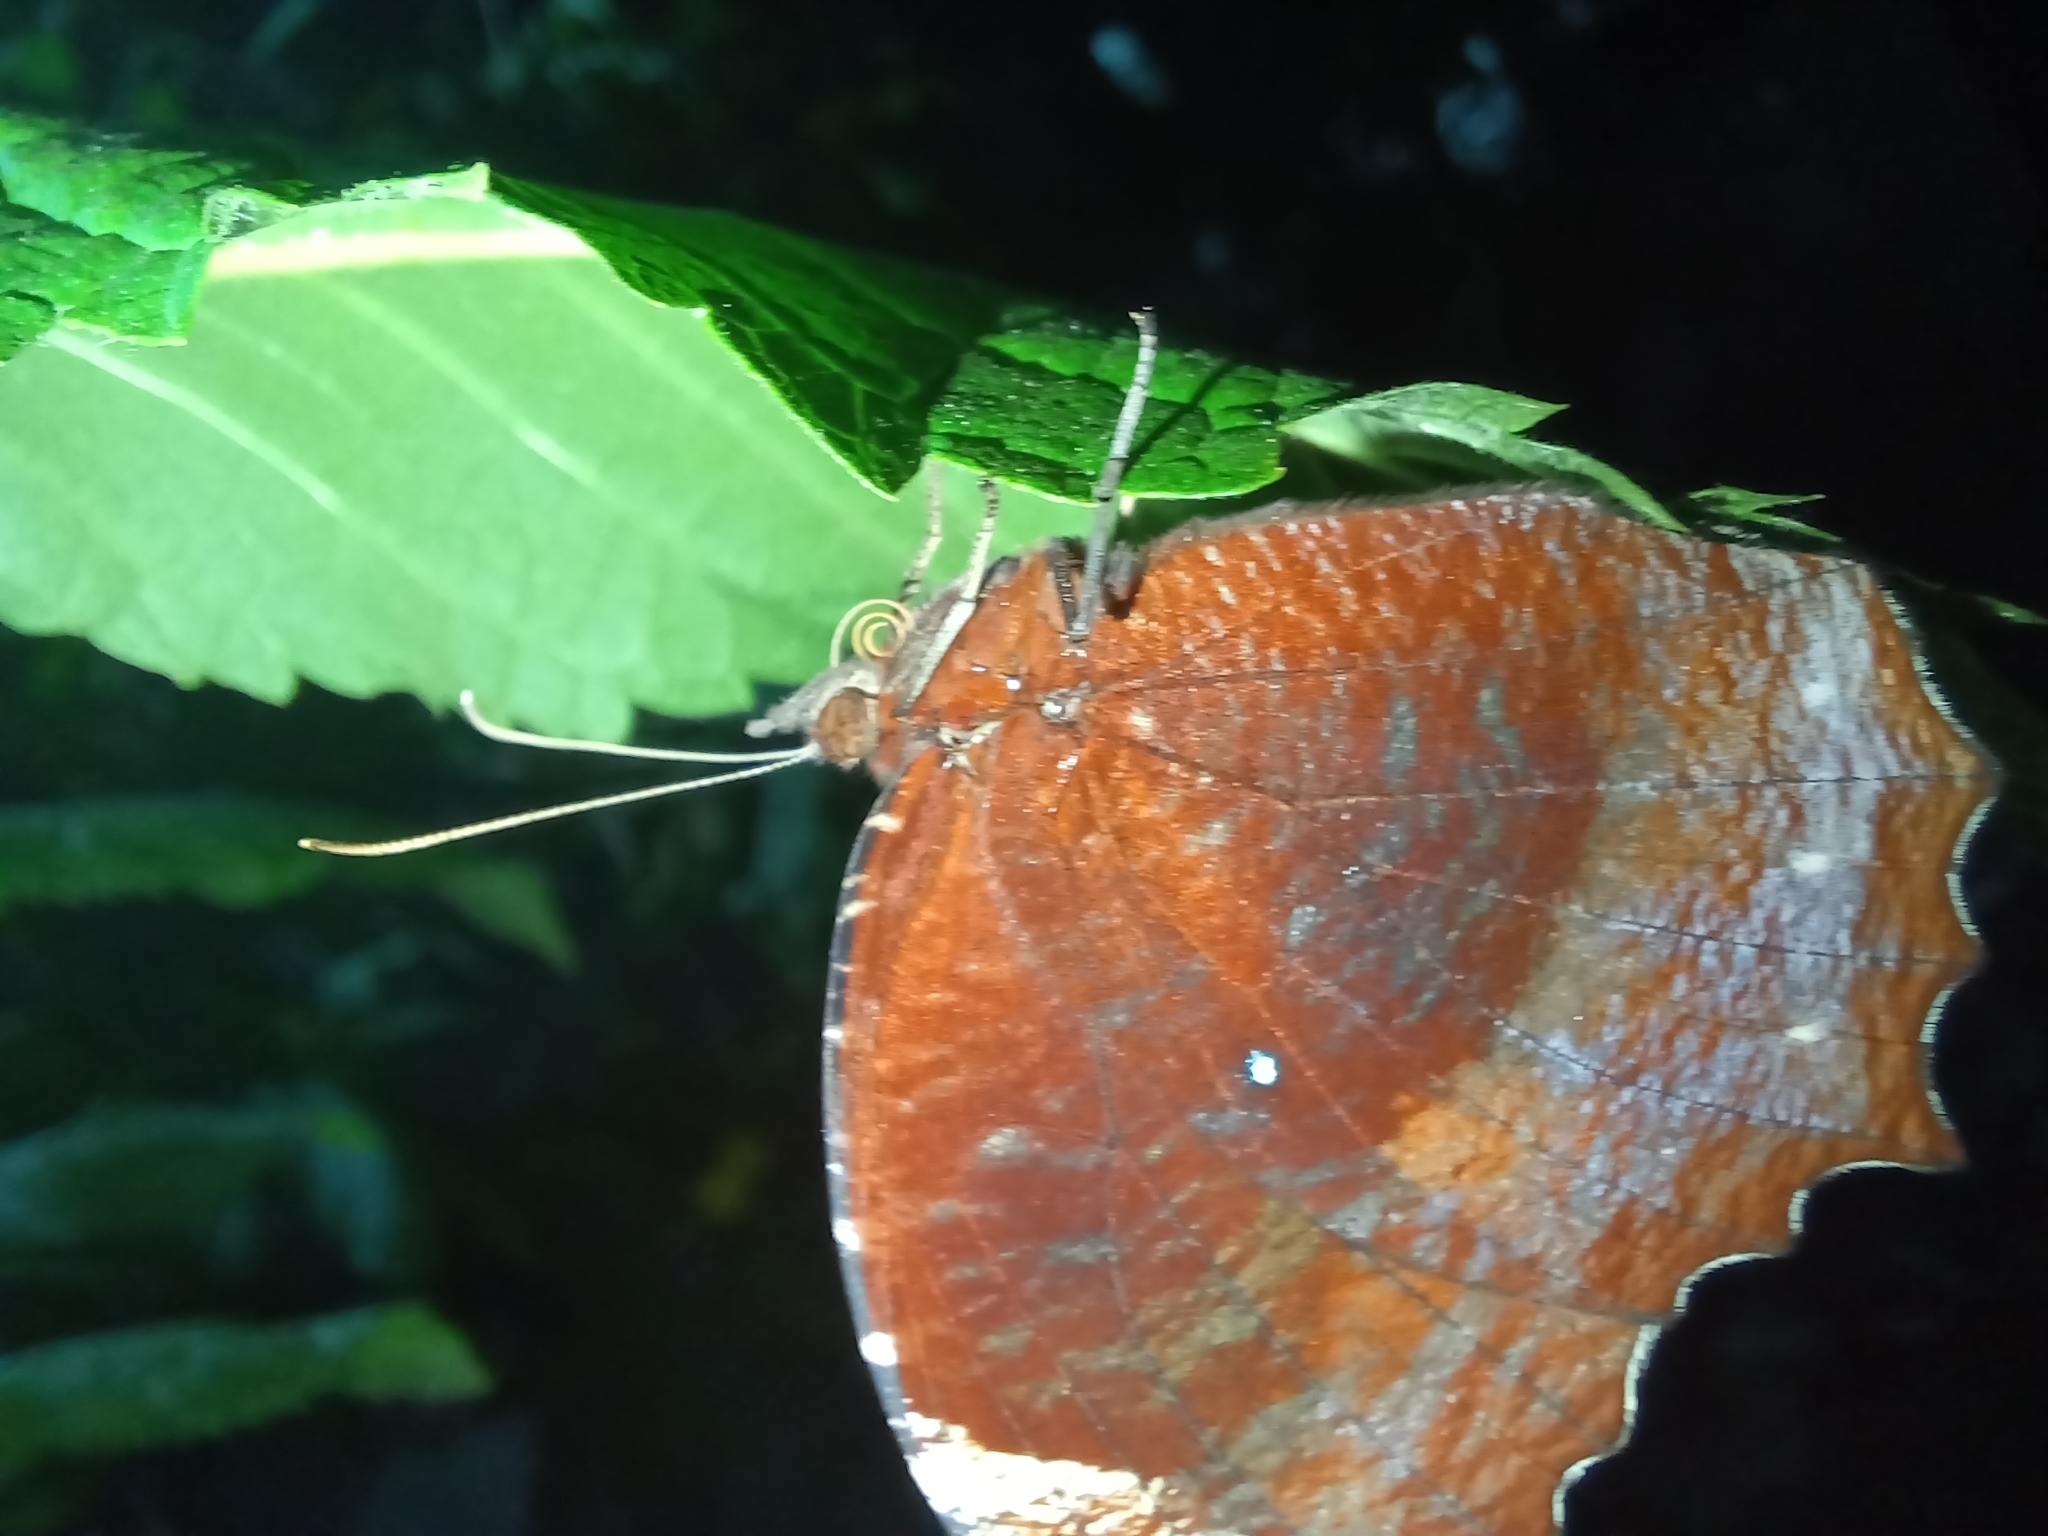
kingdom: Animalia
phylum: Arthropoda
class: Insecta
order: Lepidoptera
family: Nymphalidae
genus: Elymnias
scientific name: Elymnias hypermnestra
